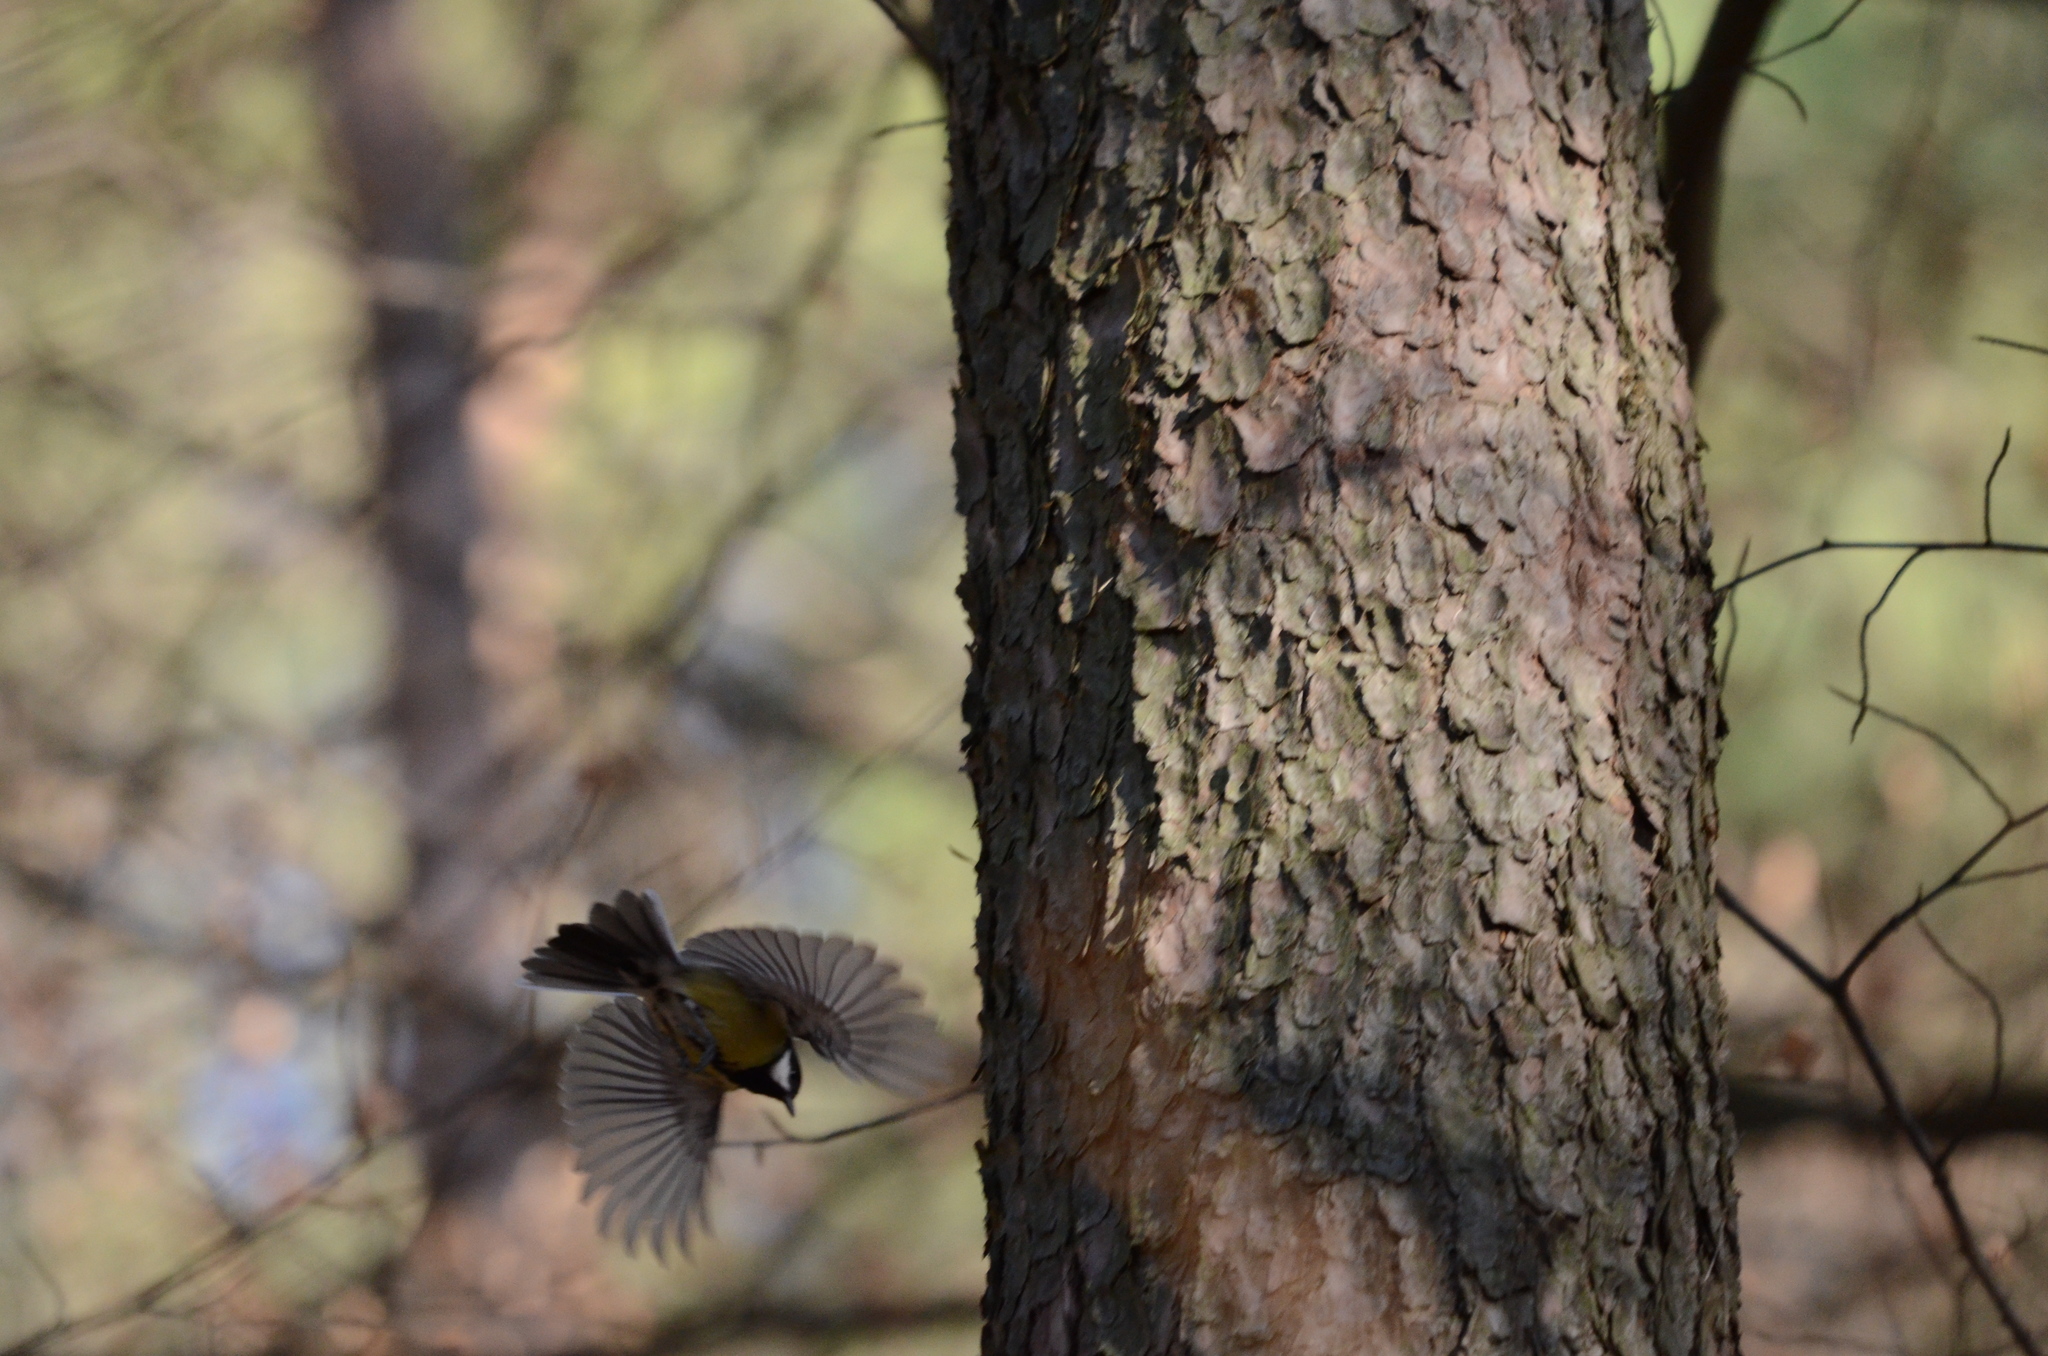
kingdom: Animalia
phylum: Chordata
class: Aves
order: Passeriformes
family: Paridae
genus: Parus
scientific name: Parus major
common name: Great tit
